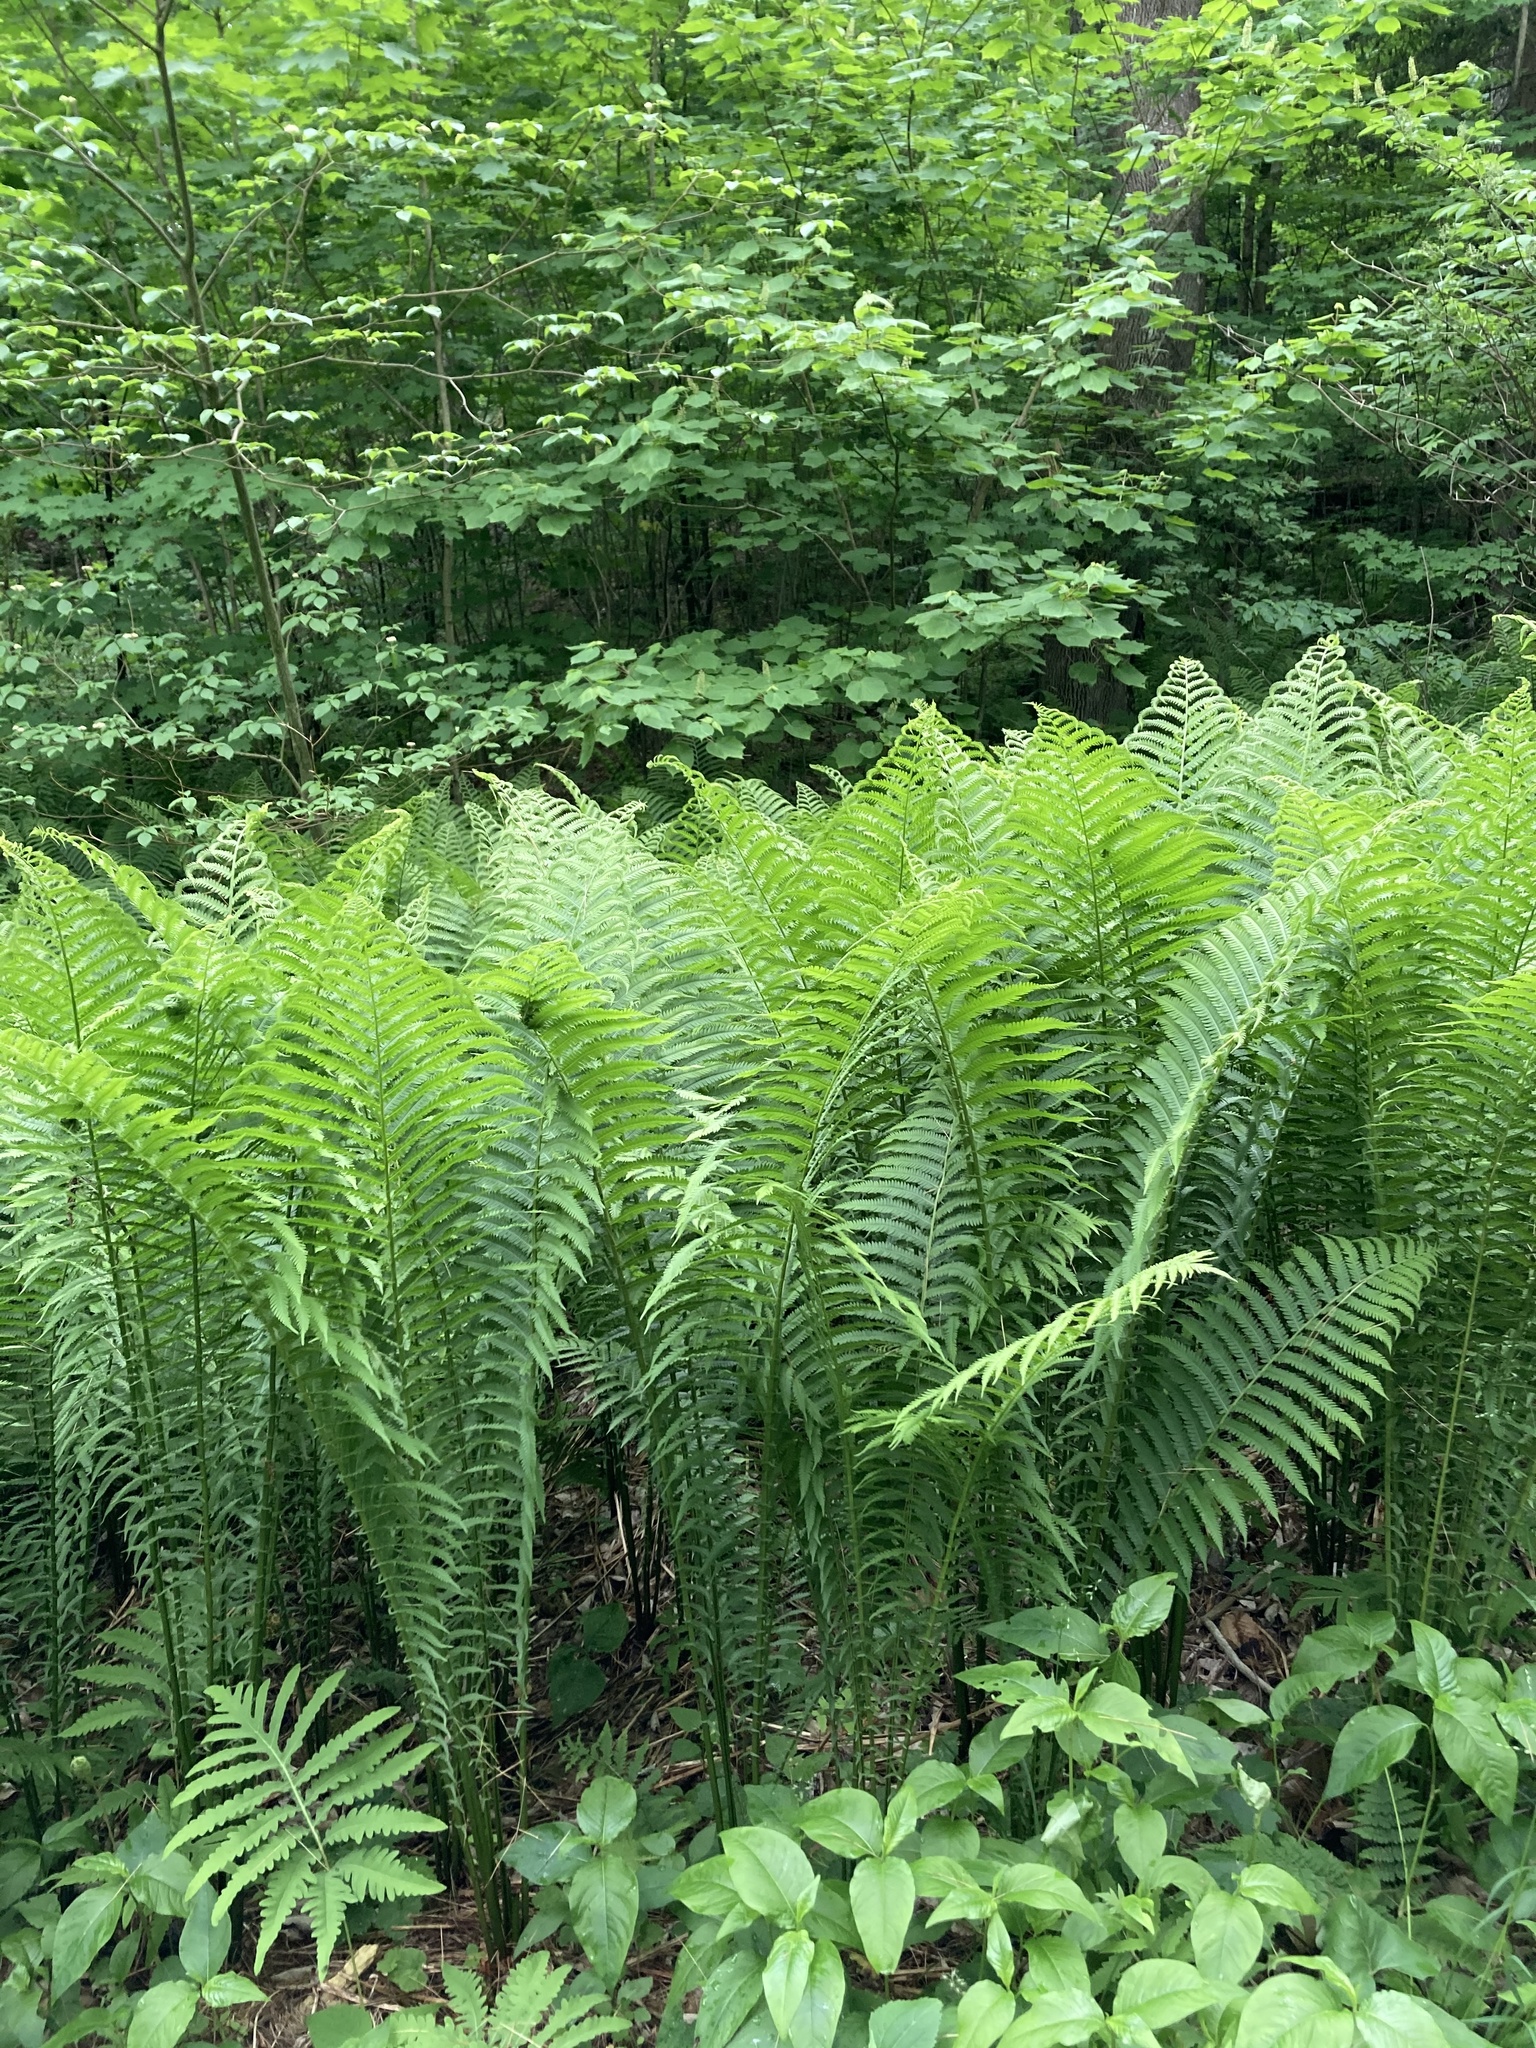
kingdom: Plantae
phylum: Tracheophyta
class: Polypodiopsida
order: Polypodiales
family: Onocleaceae
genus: Matteuccia
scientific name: Matteuccia struthiopteris
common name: Ostrich fern
